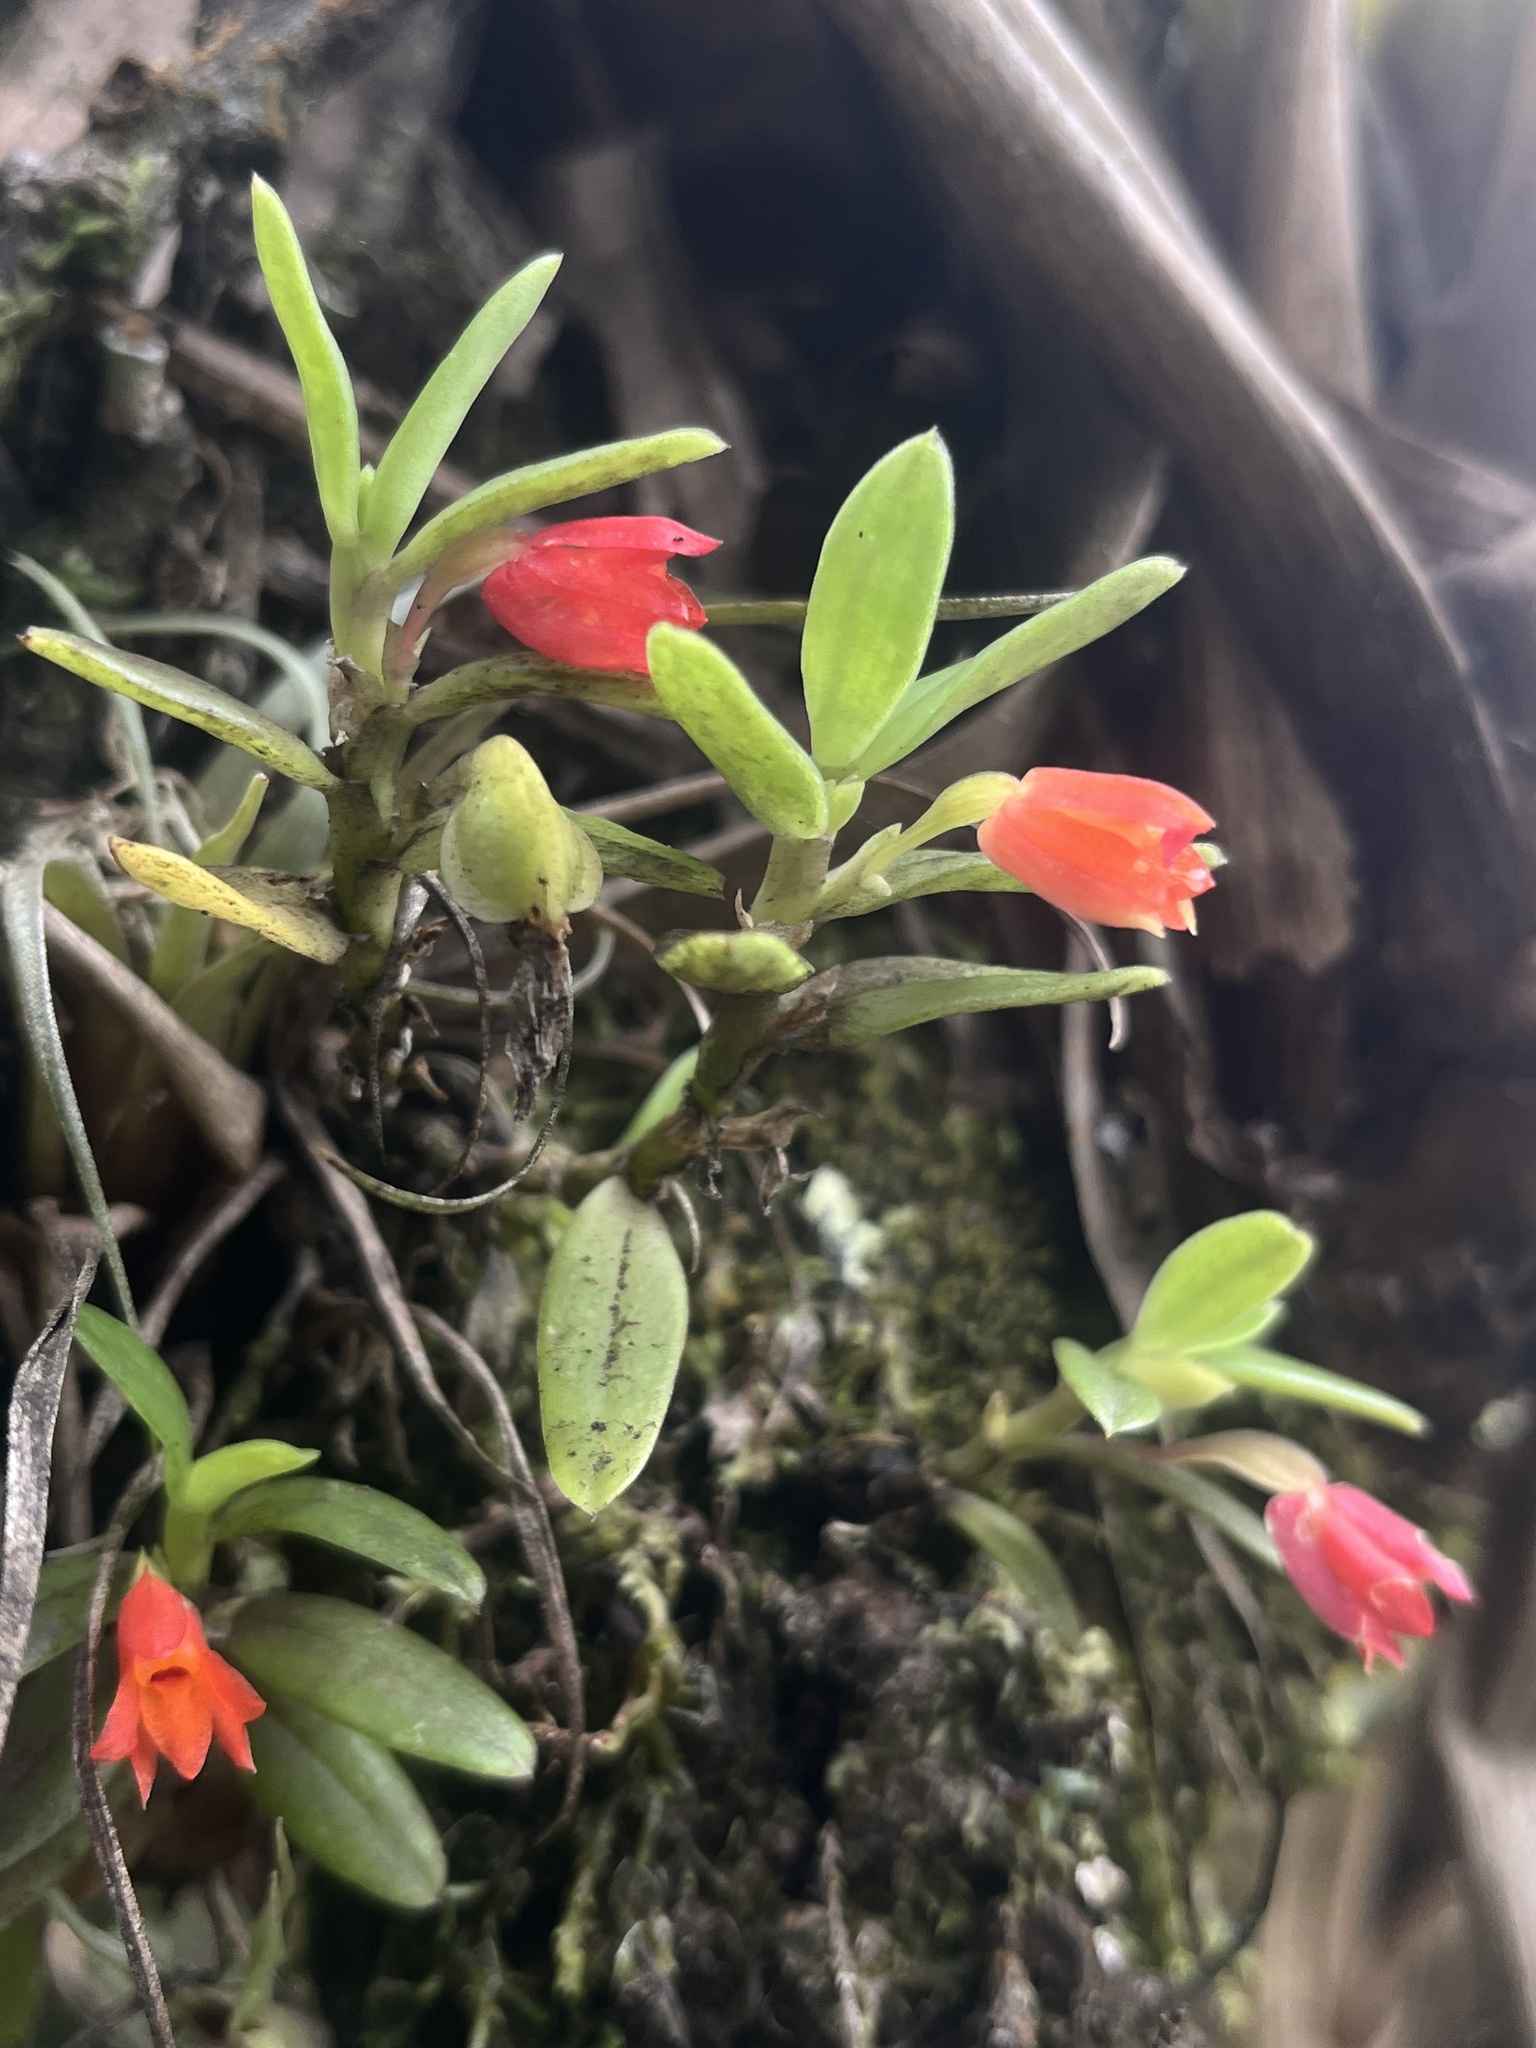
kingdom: Plantae
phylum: Tracheophyta
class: Liliopsida
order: Asparagales
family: Orchidaceae
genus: Fernandezia
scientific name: Fernandezia sanguinea
